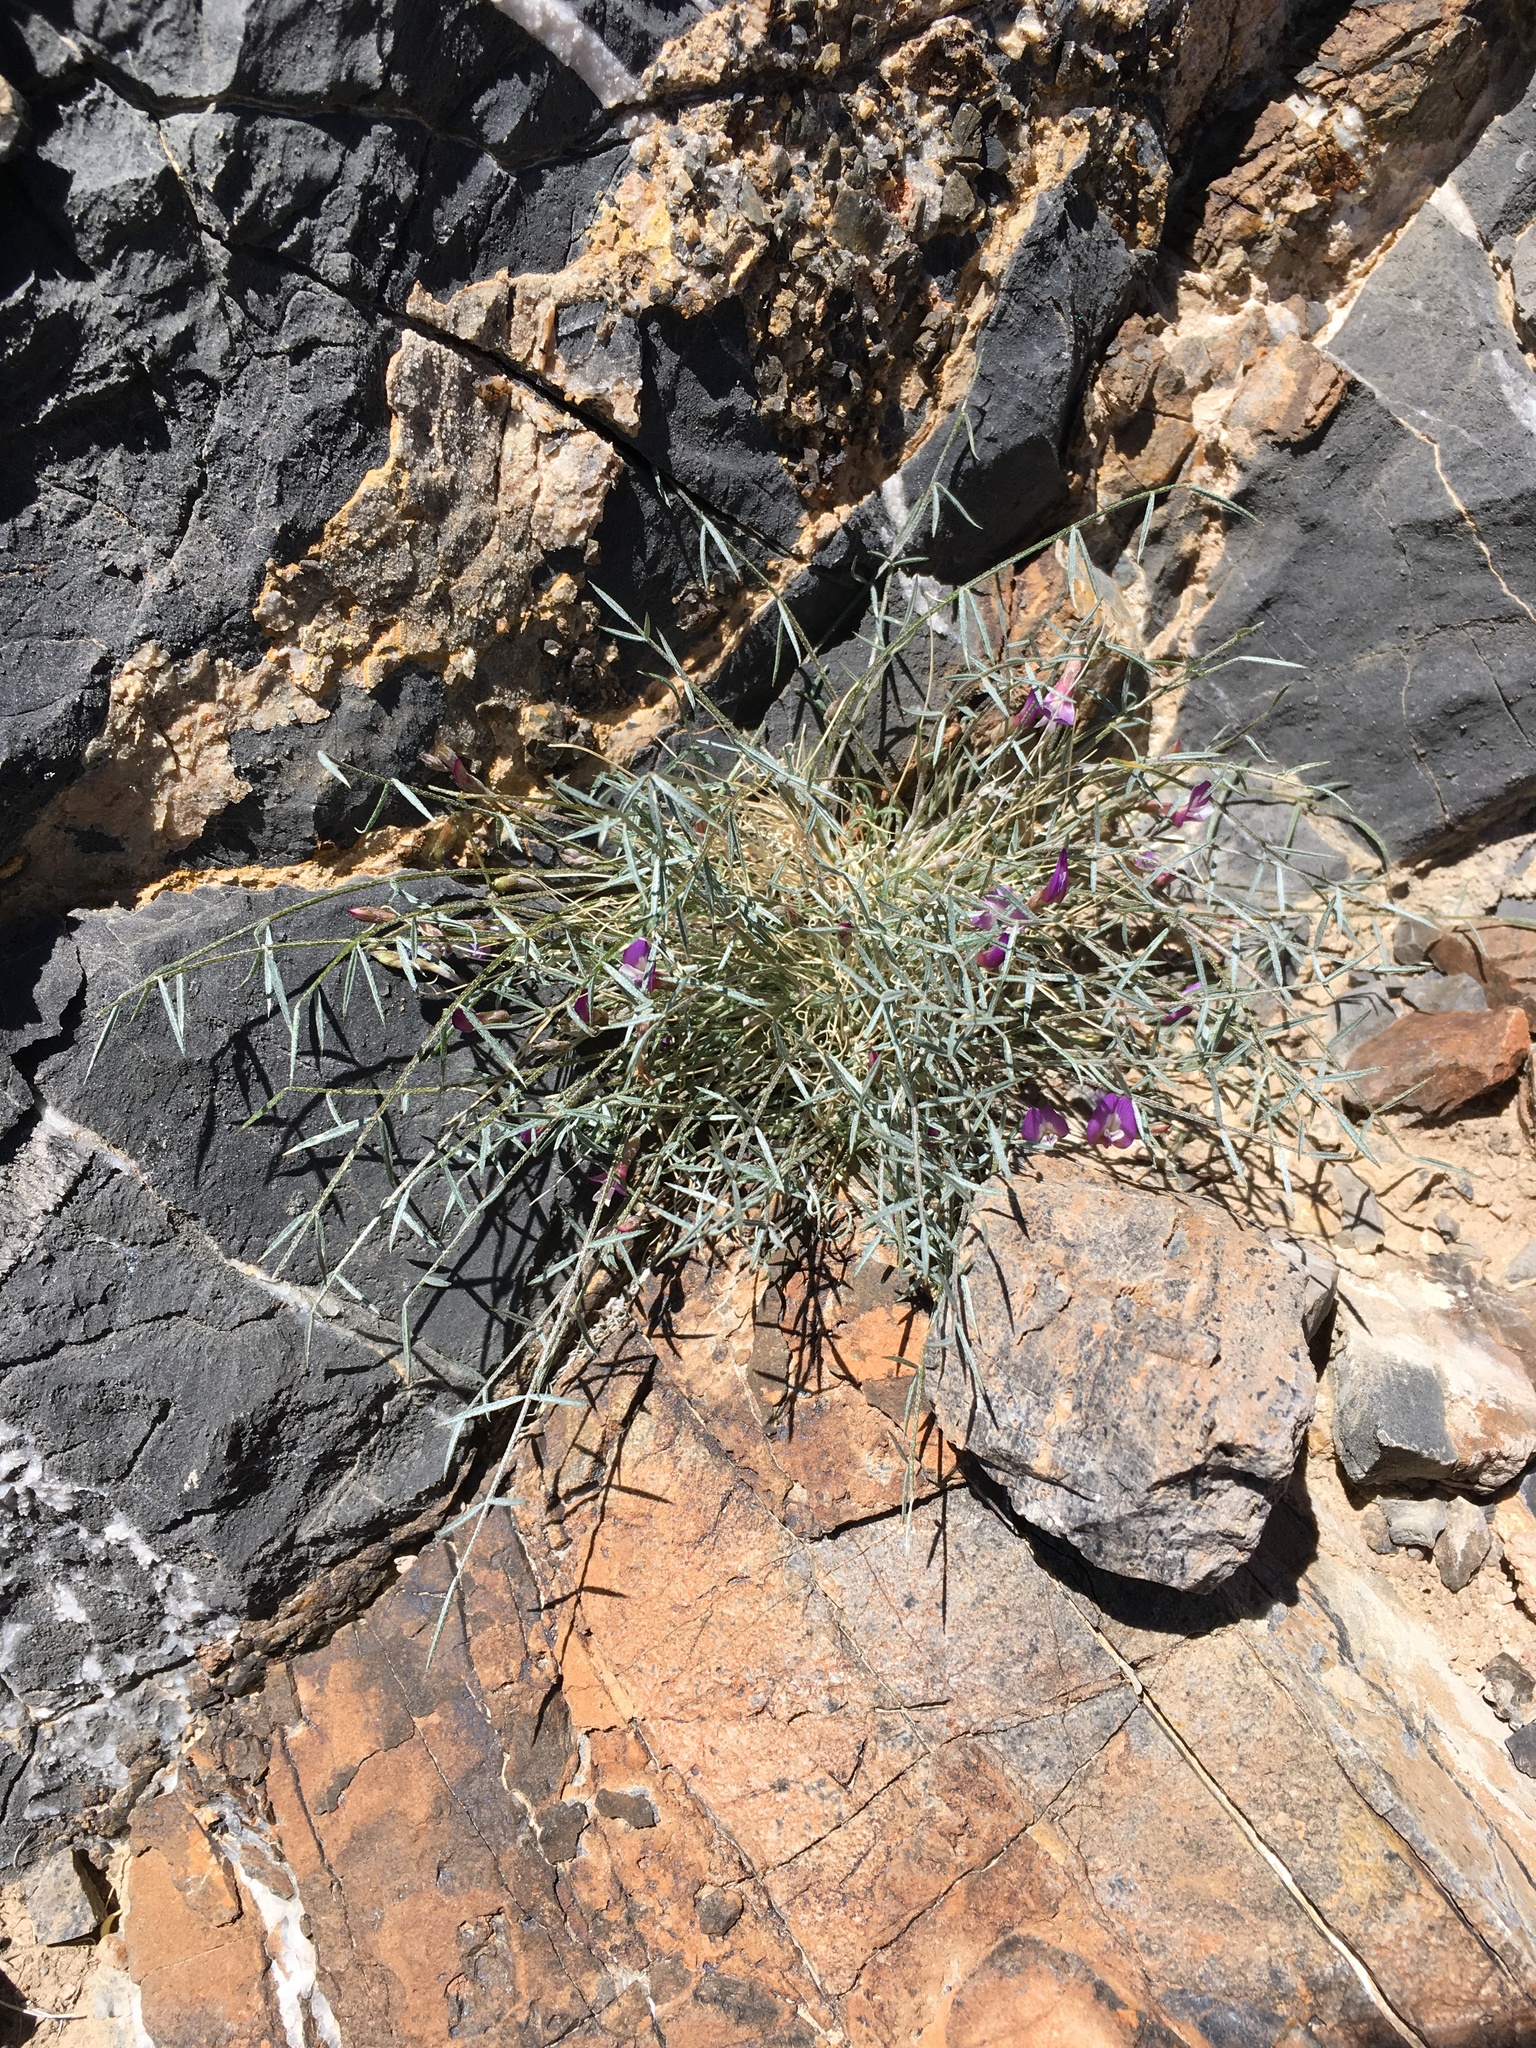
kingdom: Plantae
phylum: Tracheophyta
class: Magnoliopsida
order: Fabales
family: Fabaceae
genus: Astragalus
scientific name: Astragalus panamintensis
